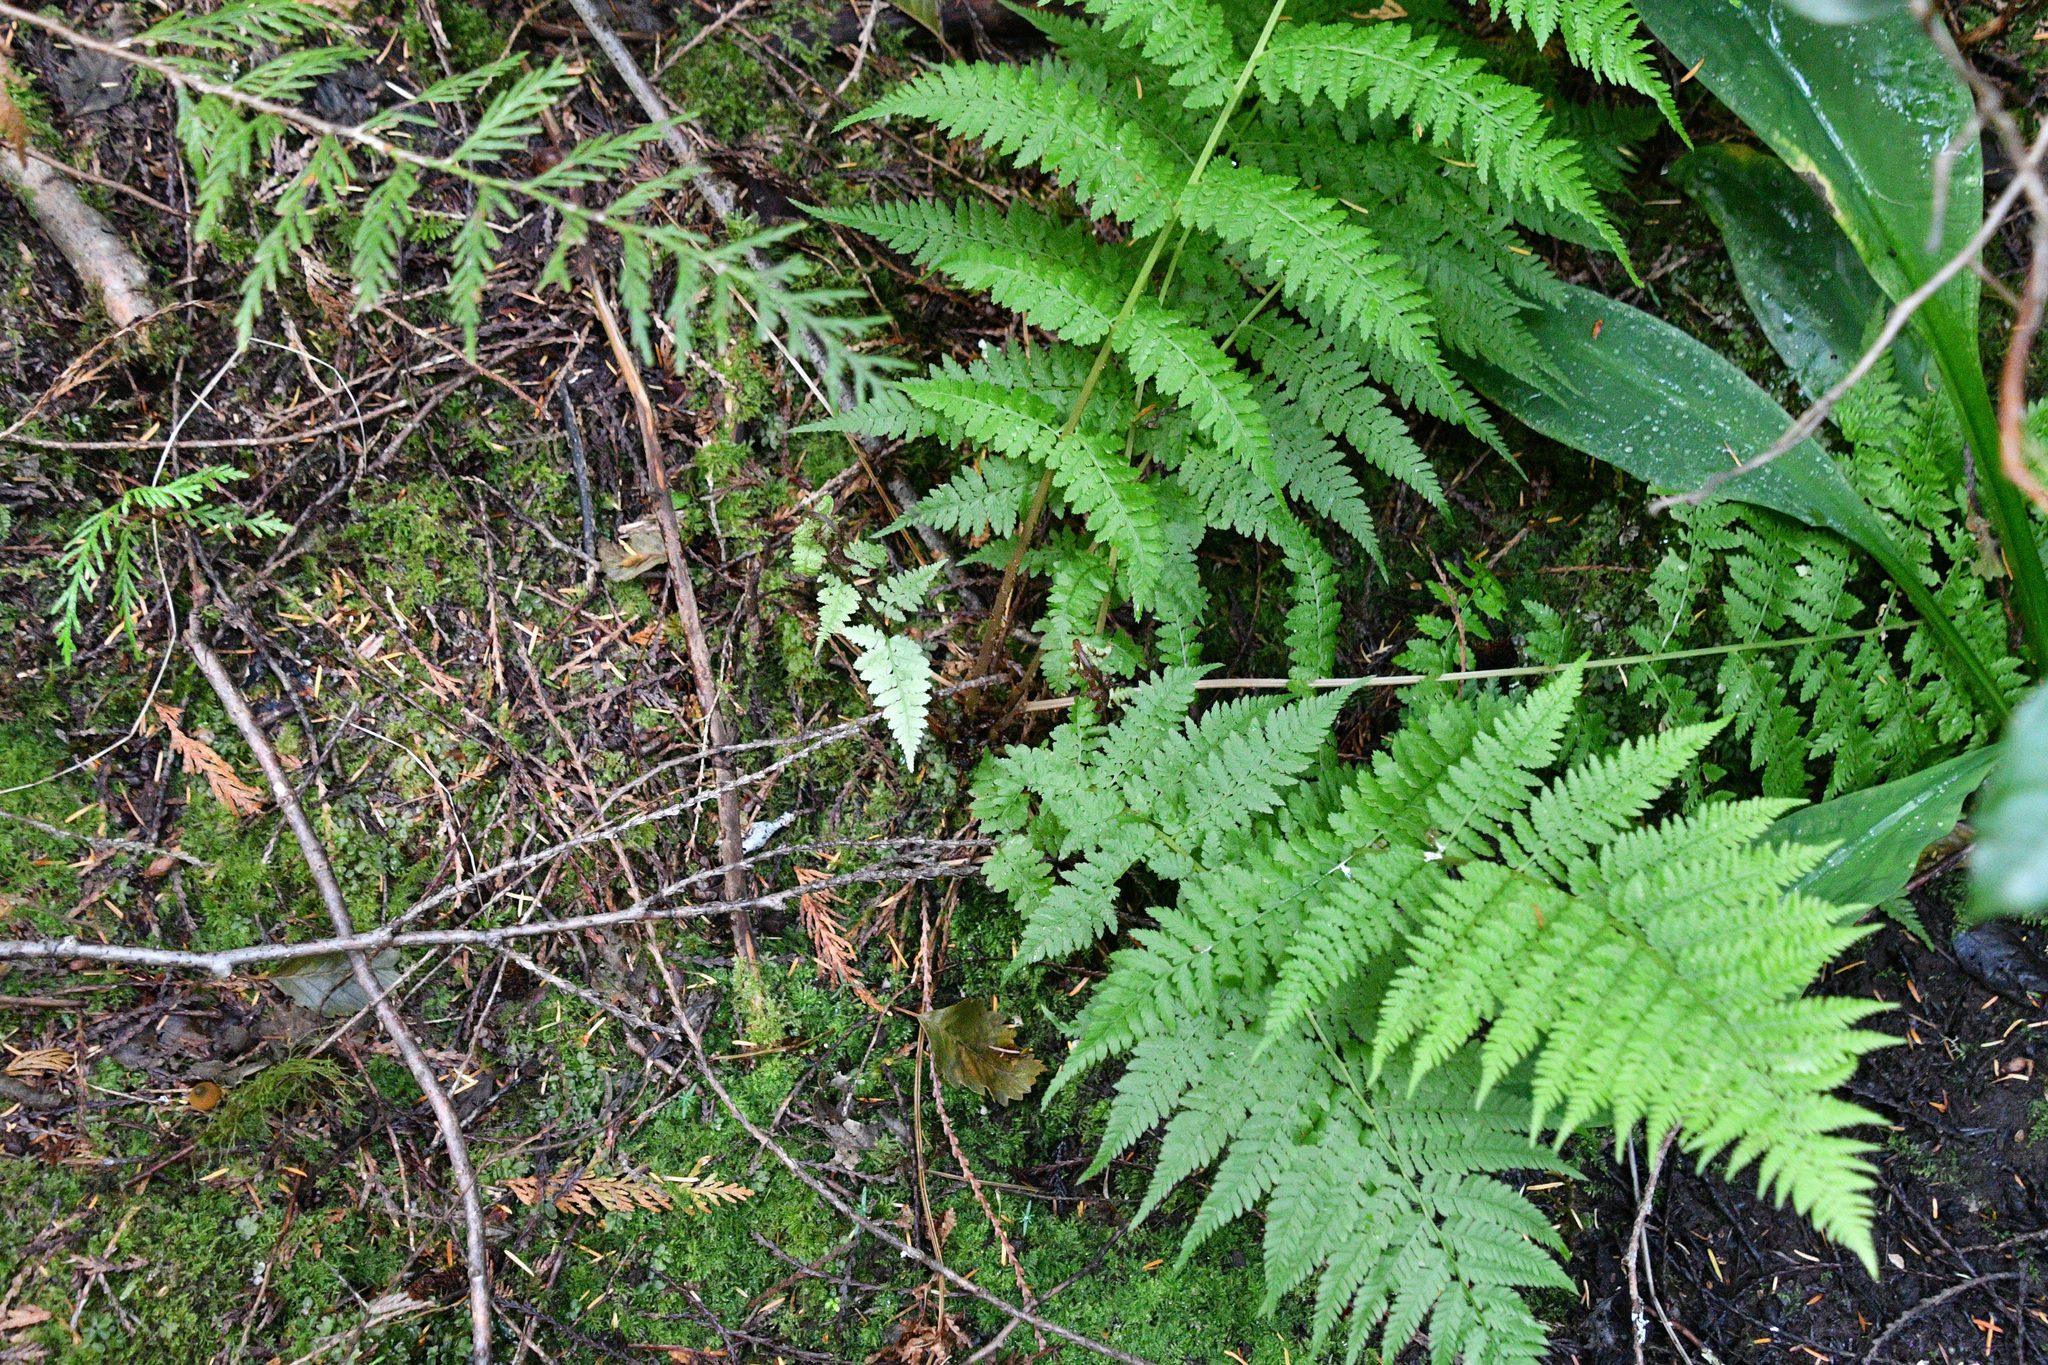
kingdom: Plantae
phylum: Tracheophyta
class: Polypodiopsida
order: Polypodiales
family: Athyriaceae
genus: Athyrium
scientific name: Athyrium filix-femina
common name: Lady fern
